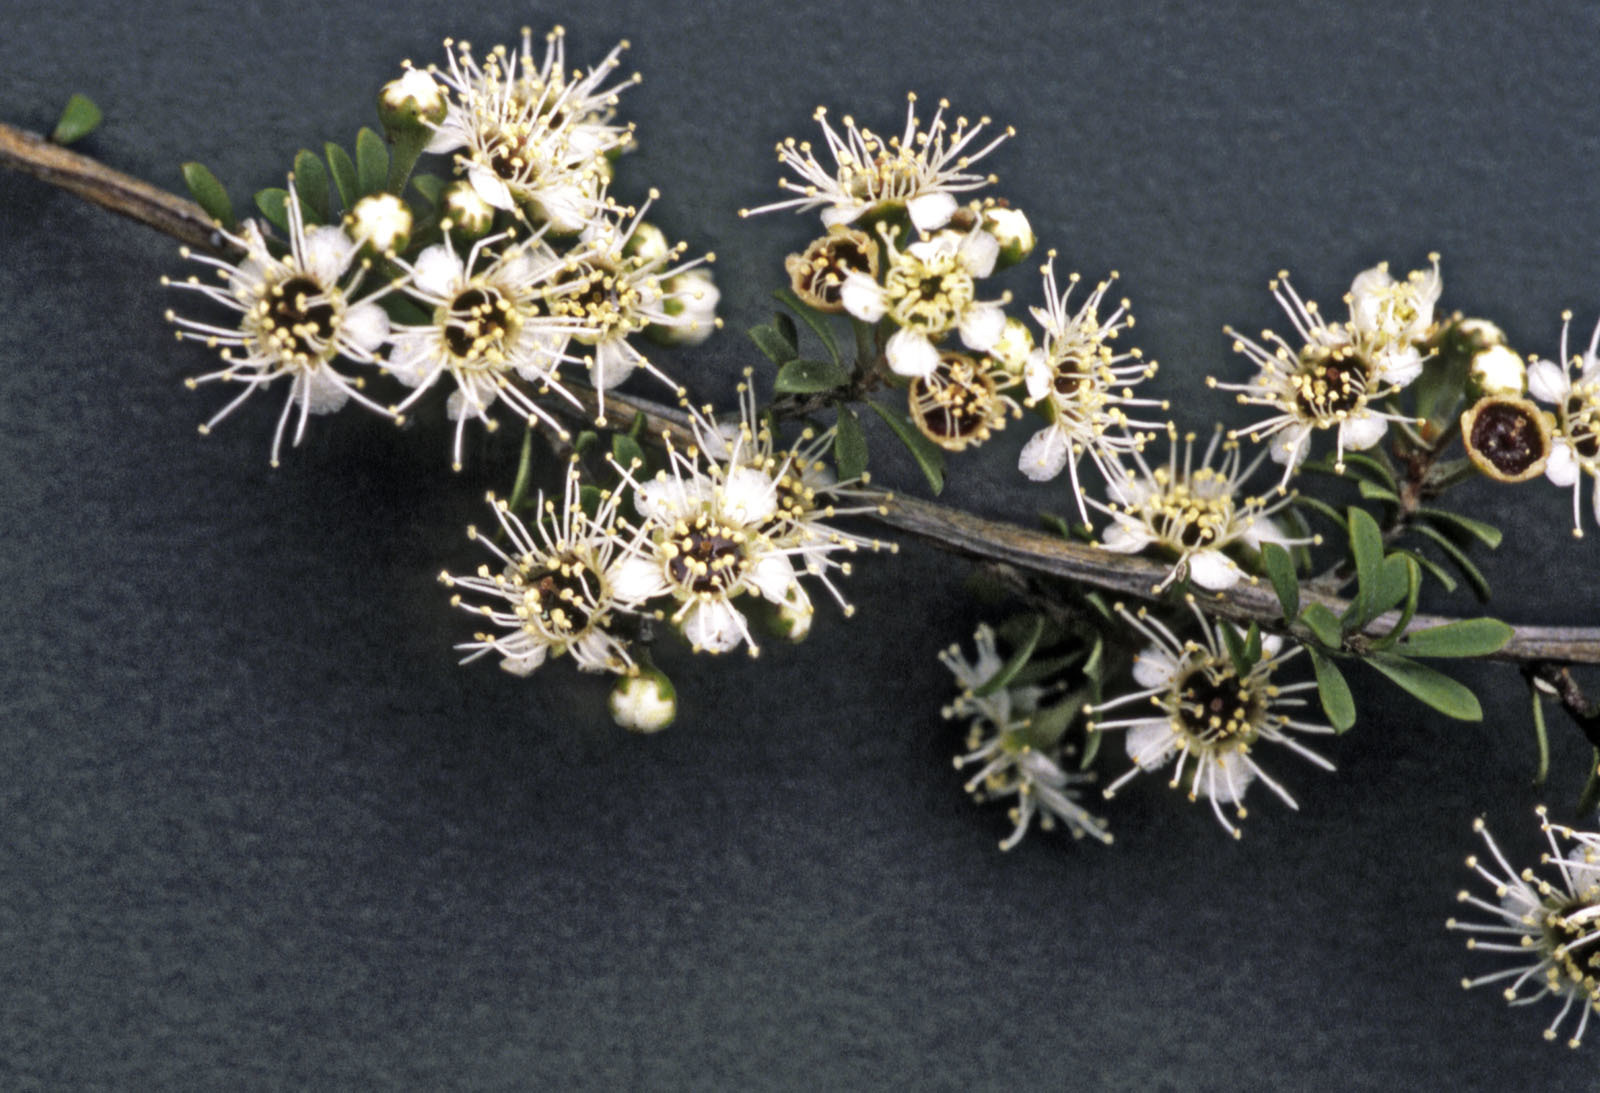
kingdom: Plantae
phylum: Tracheophyta
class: Magnoliopsida
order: Myrtales
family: Myrtaceae
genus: Kunzea
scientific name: Kunzea toelkenii
